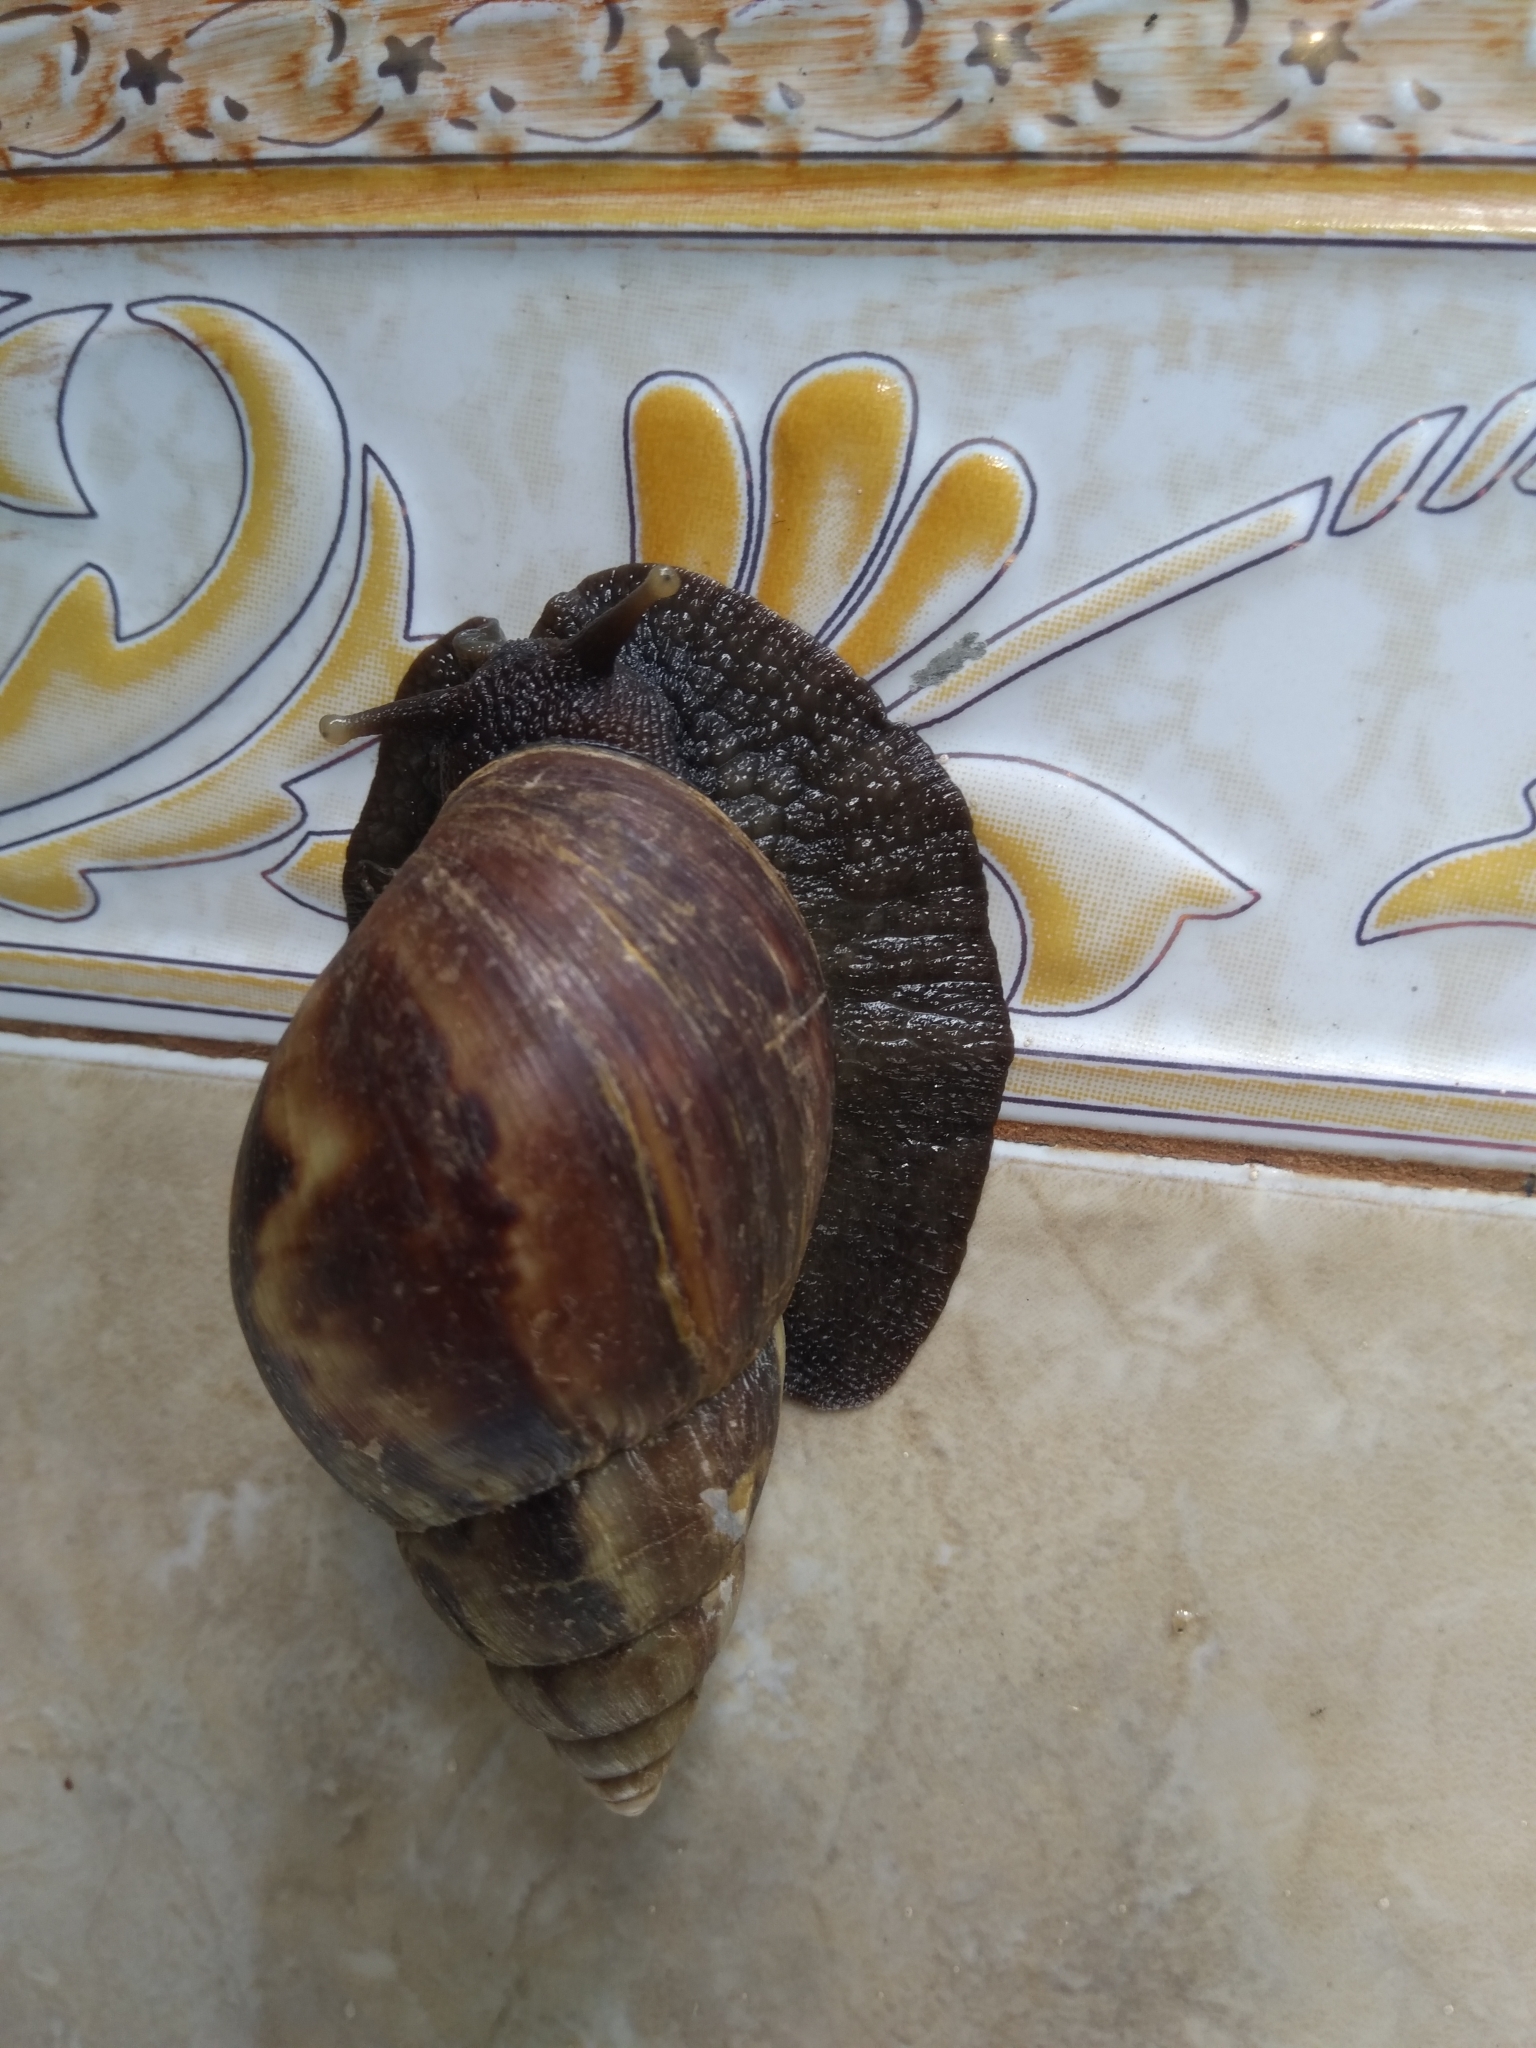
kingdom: Animalia
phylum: Mollusca
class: Gastropoda
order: Stylommatophora
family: Achatinidae
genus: Lissachatina
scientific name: Lissachatina fulica
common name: Giant african snail
